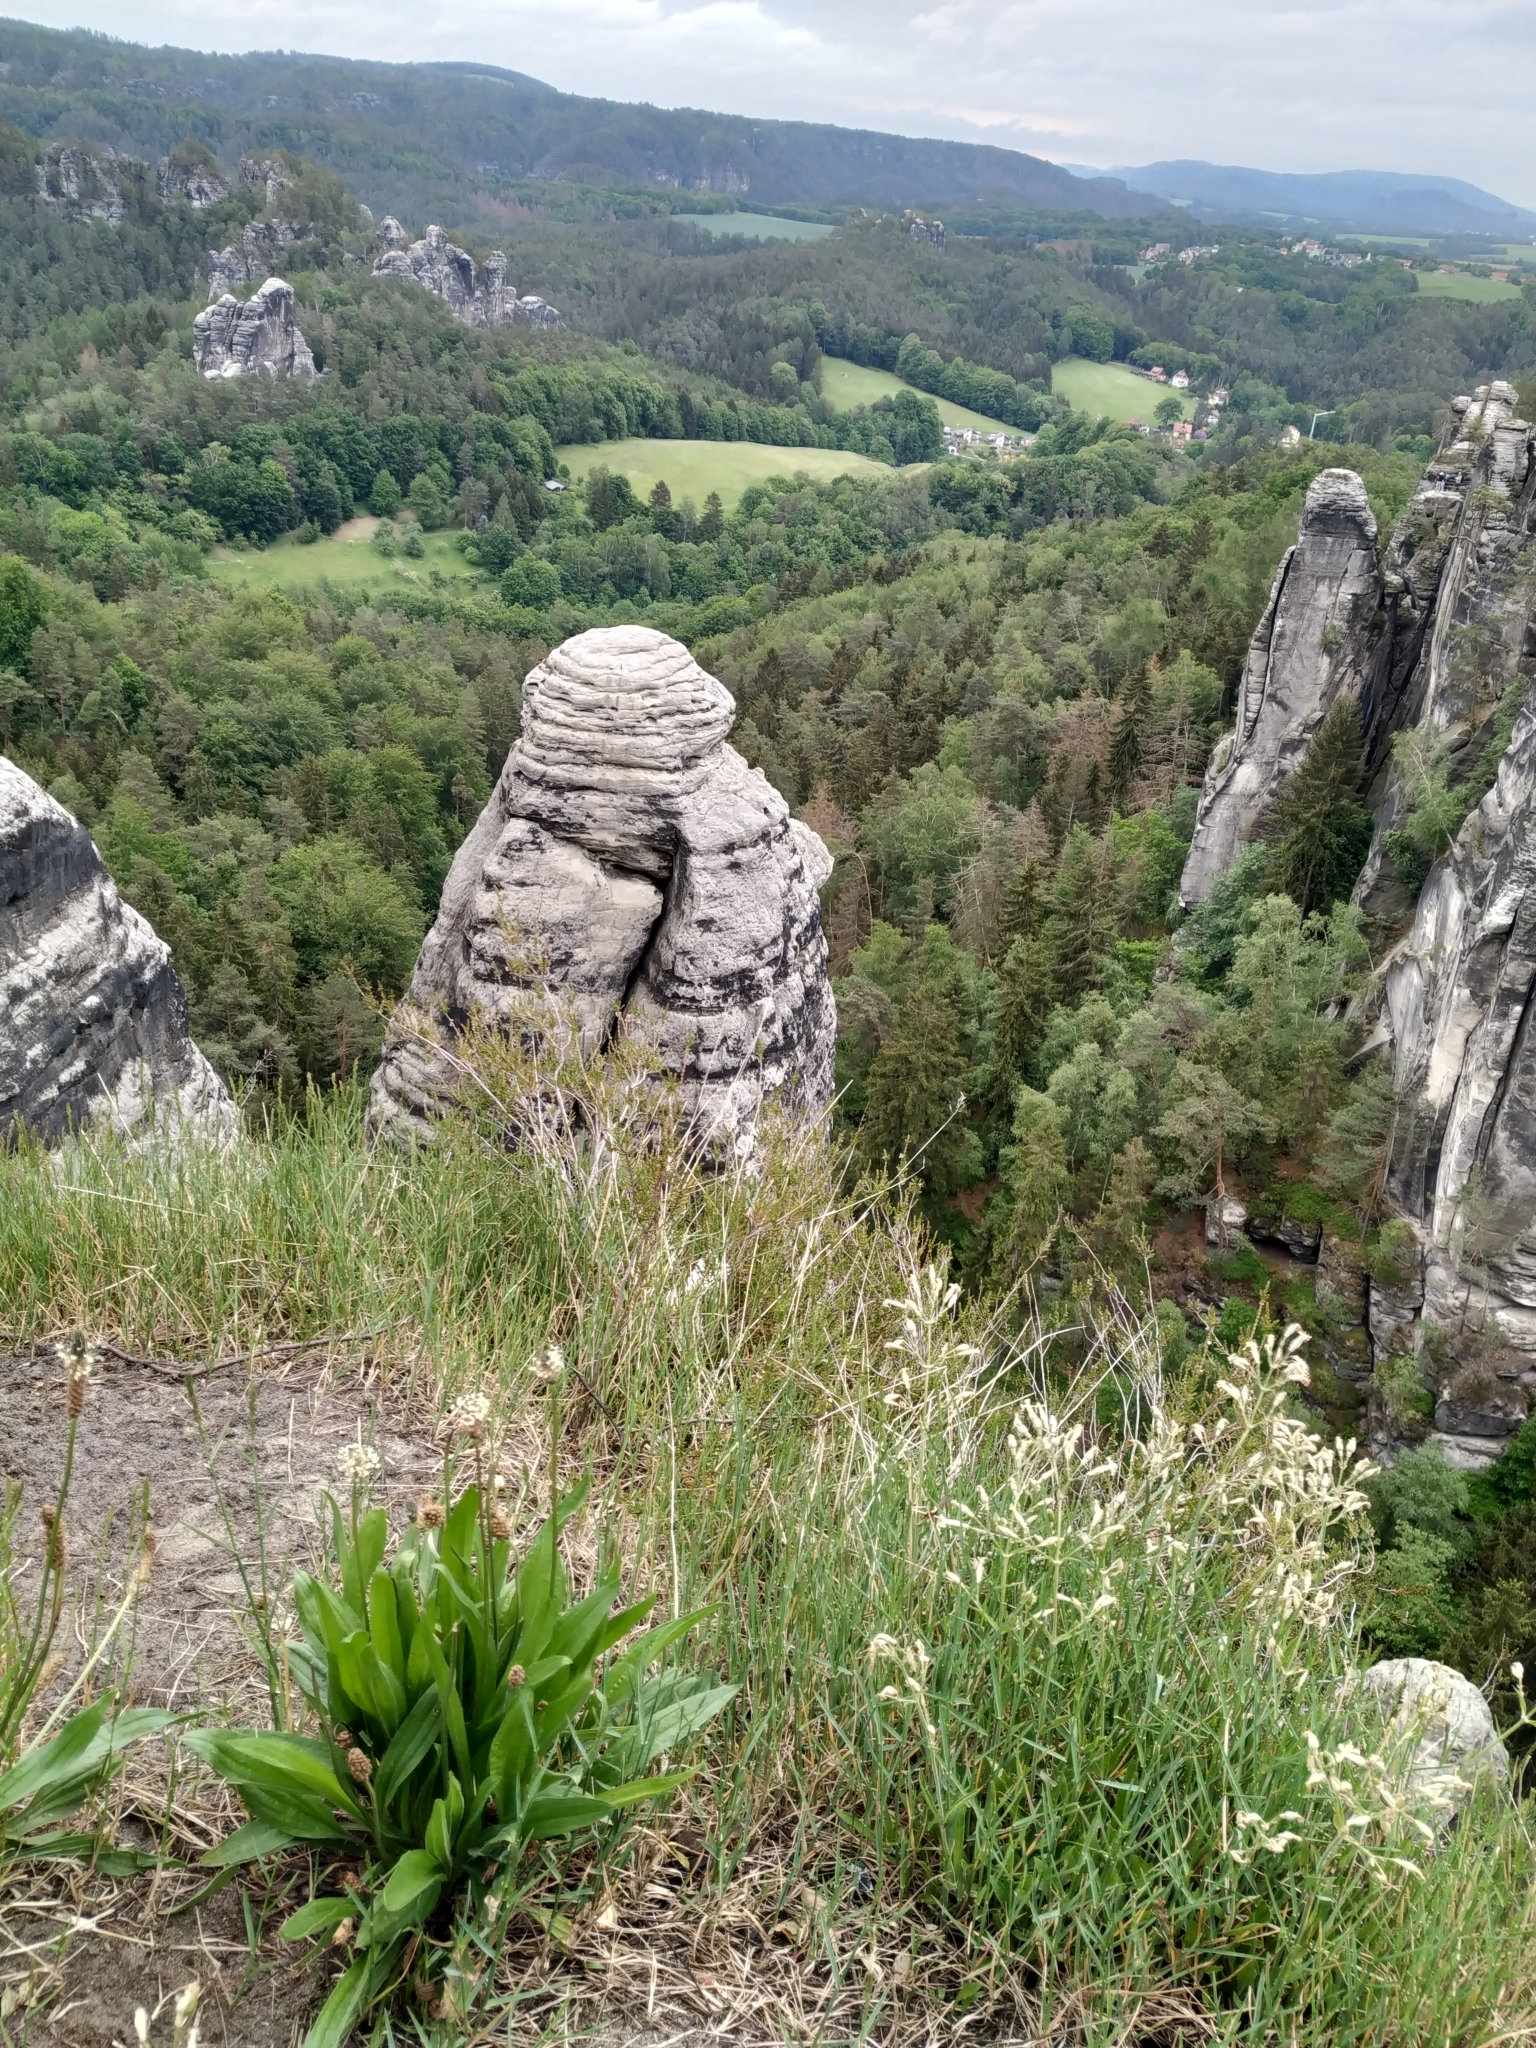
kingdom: Plantae
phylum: Tracheophyta
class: Magnoliopsida
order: Lamiales
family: Plantaginaceae
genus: Plantago
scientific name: Plantago lanceolata
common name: Ribwort plantain
